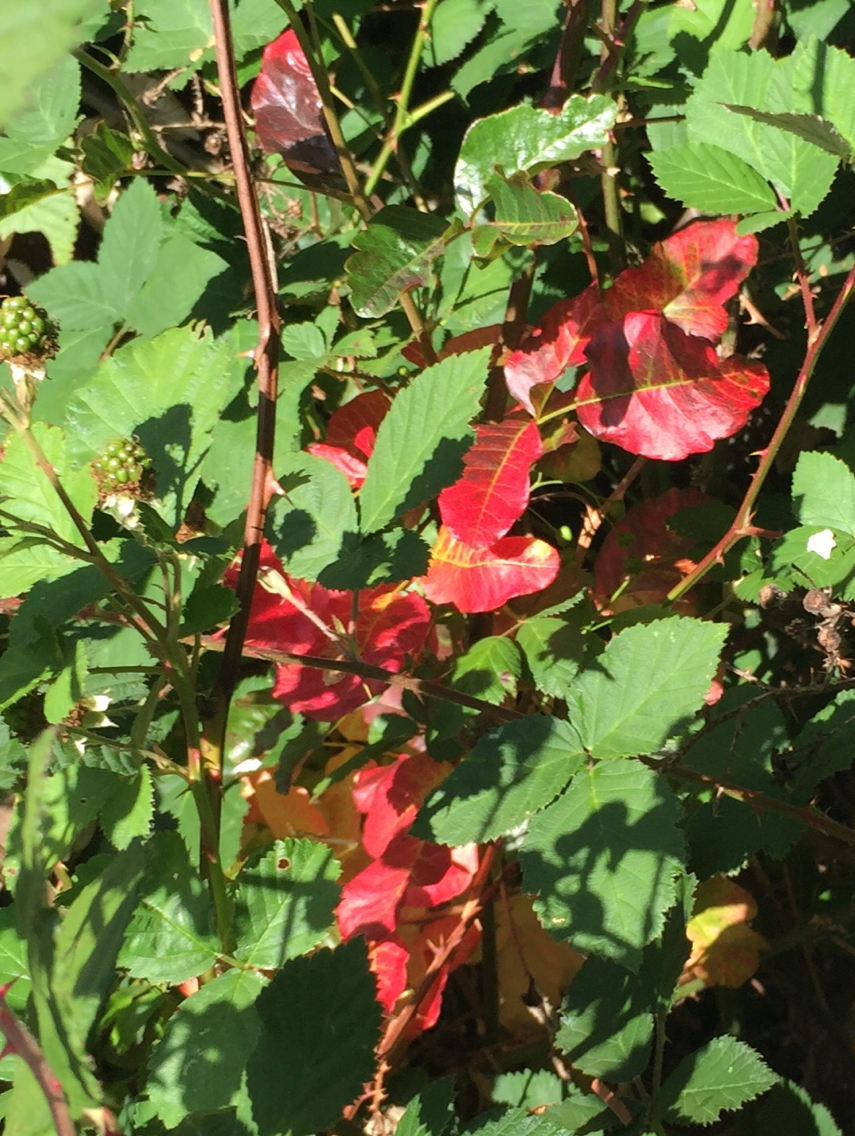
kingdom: Plantae
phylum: Tracheophyta
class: Magnoliopsida
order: Sapindales
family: Anacardiaceae
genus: Toxicodendron
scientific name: Toxicodendron diversilobum
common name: Pacific poison-oak
